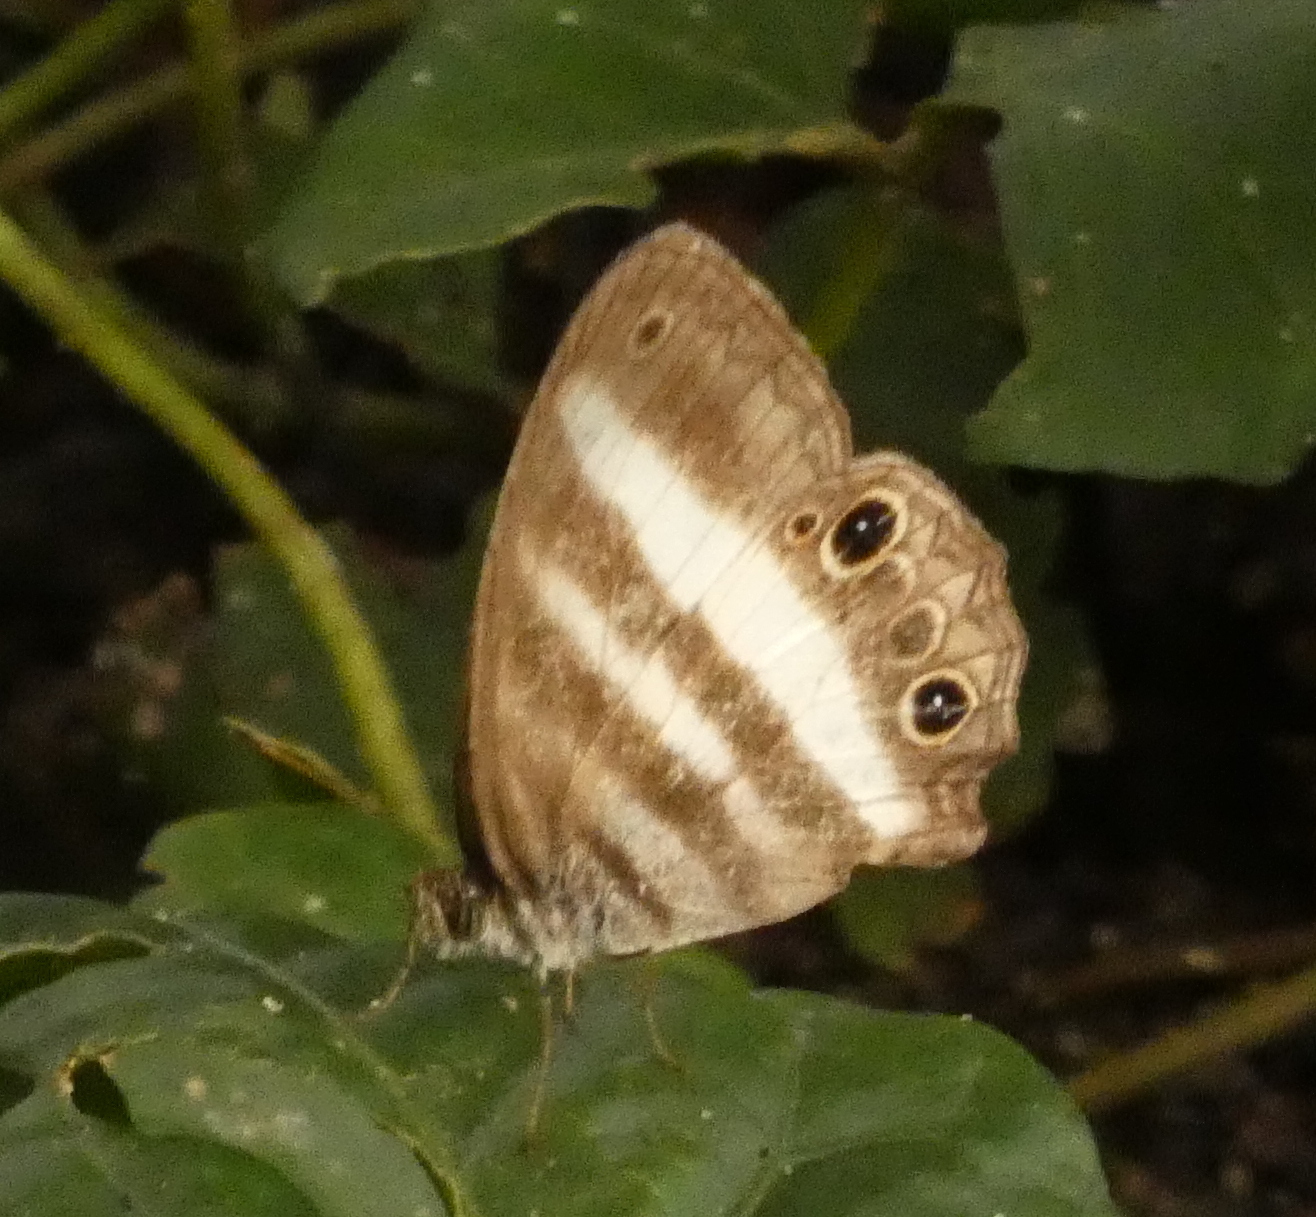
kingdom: Animalia
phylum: Arthropoda
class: Insecta
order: Lepidoptera
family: Nymphalidae
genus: Pareuptychia
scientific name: Pareuptychia hesione
